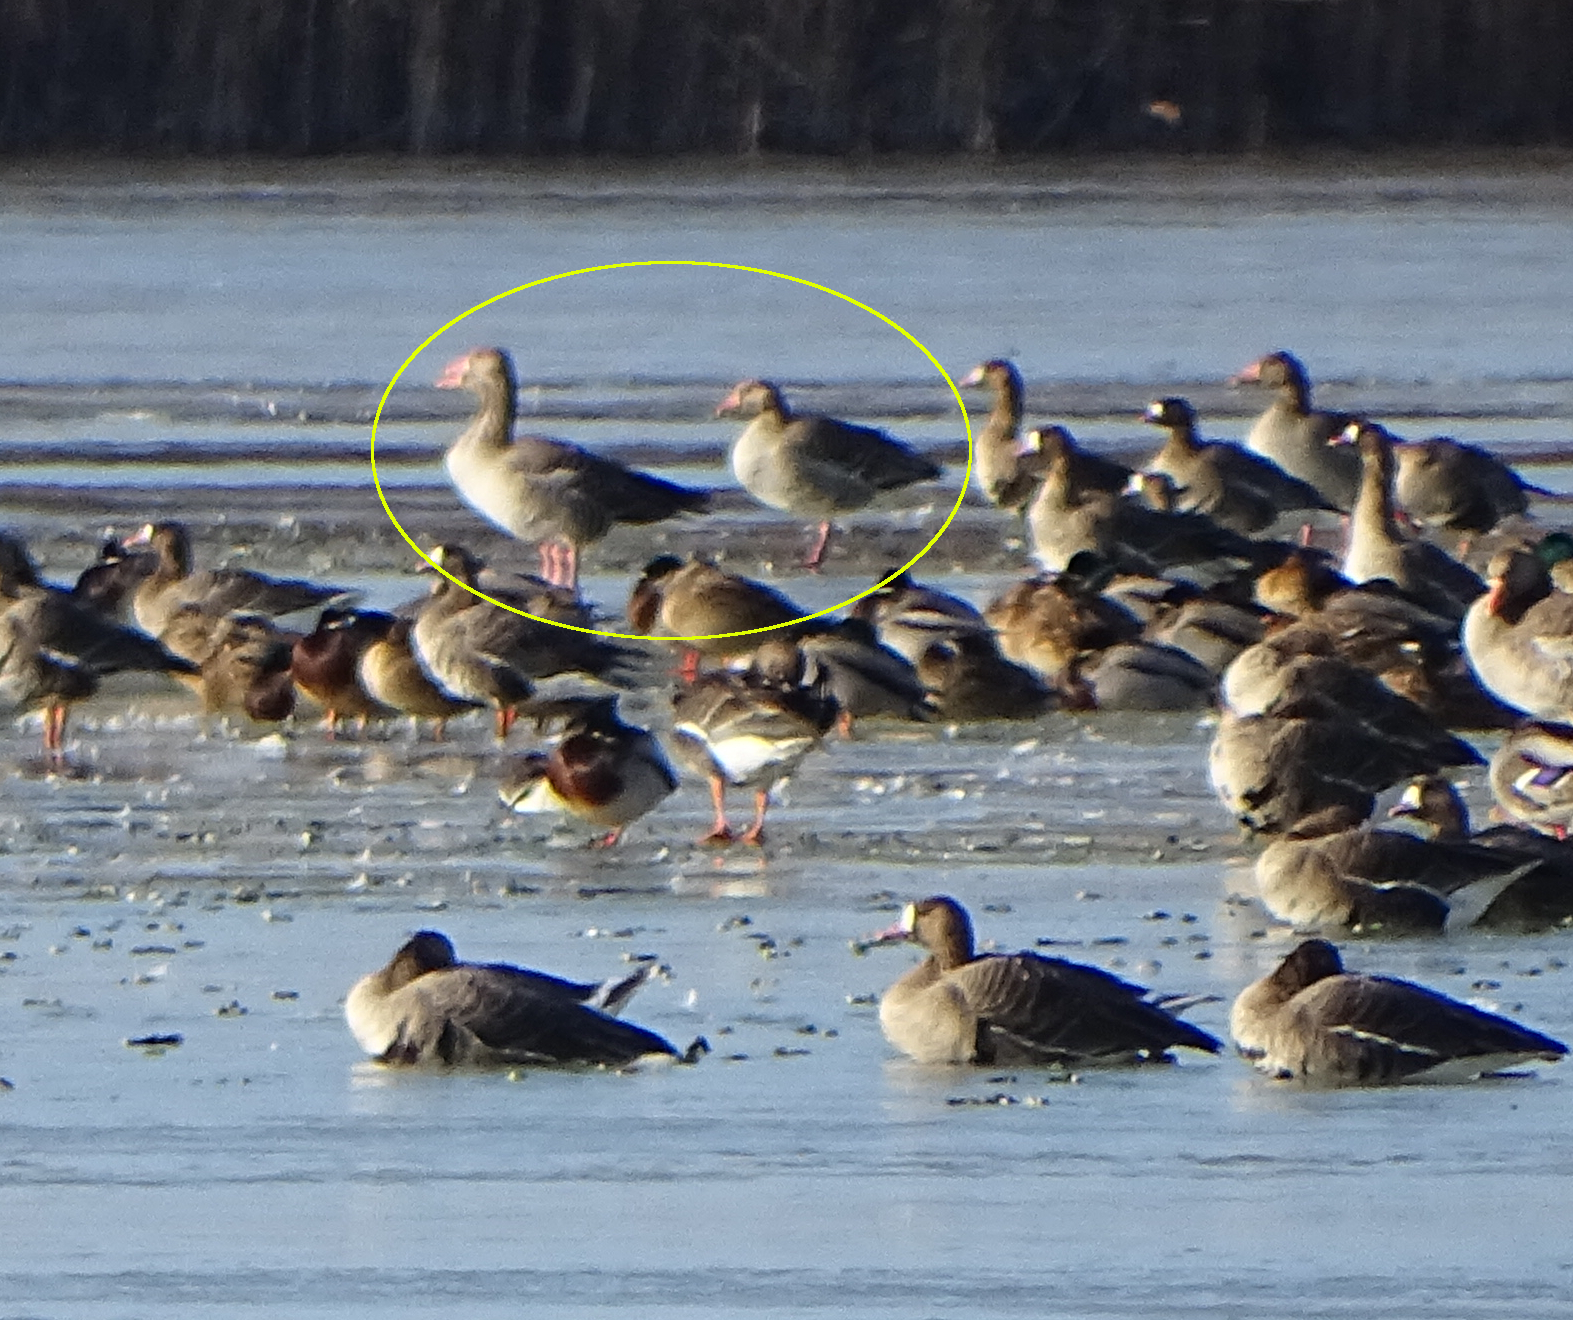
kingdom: Animalia
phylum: Chordata
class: Aves
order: Anseriformes
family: Anatidae
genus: Anser
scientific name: Anser anser
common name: Greylag goose
